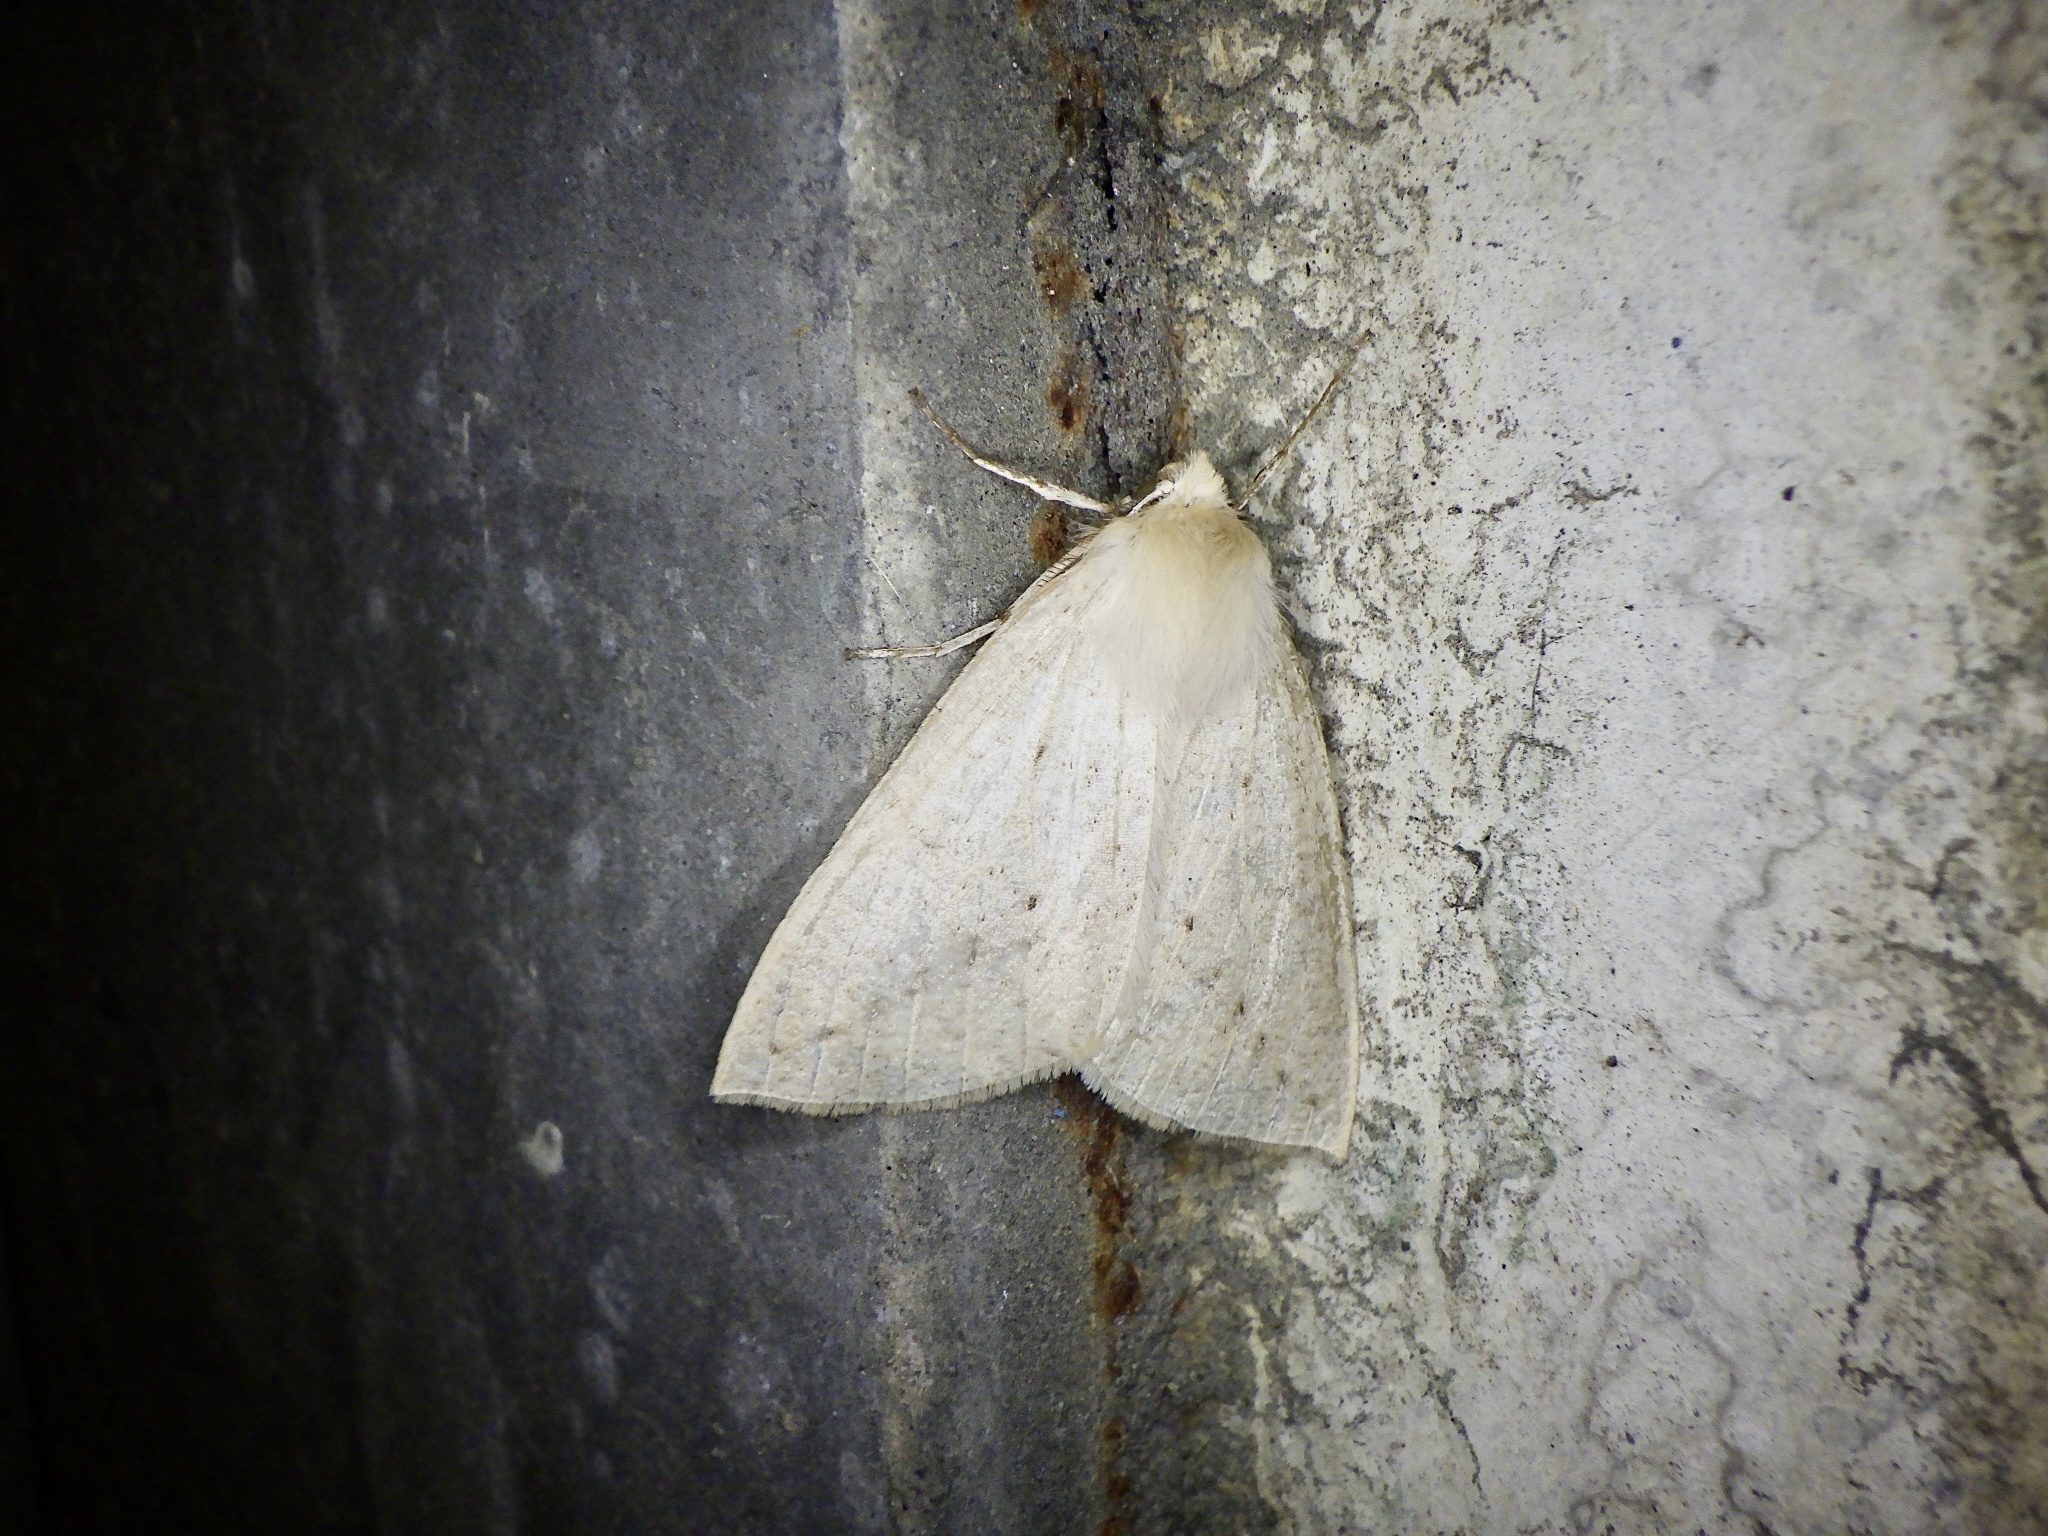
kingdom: Animalia
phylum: Arthropoda
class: Insecta
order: Lepidoptera
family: Geometridae
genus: Descoreba
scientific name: Descoreba simplex
